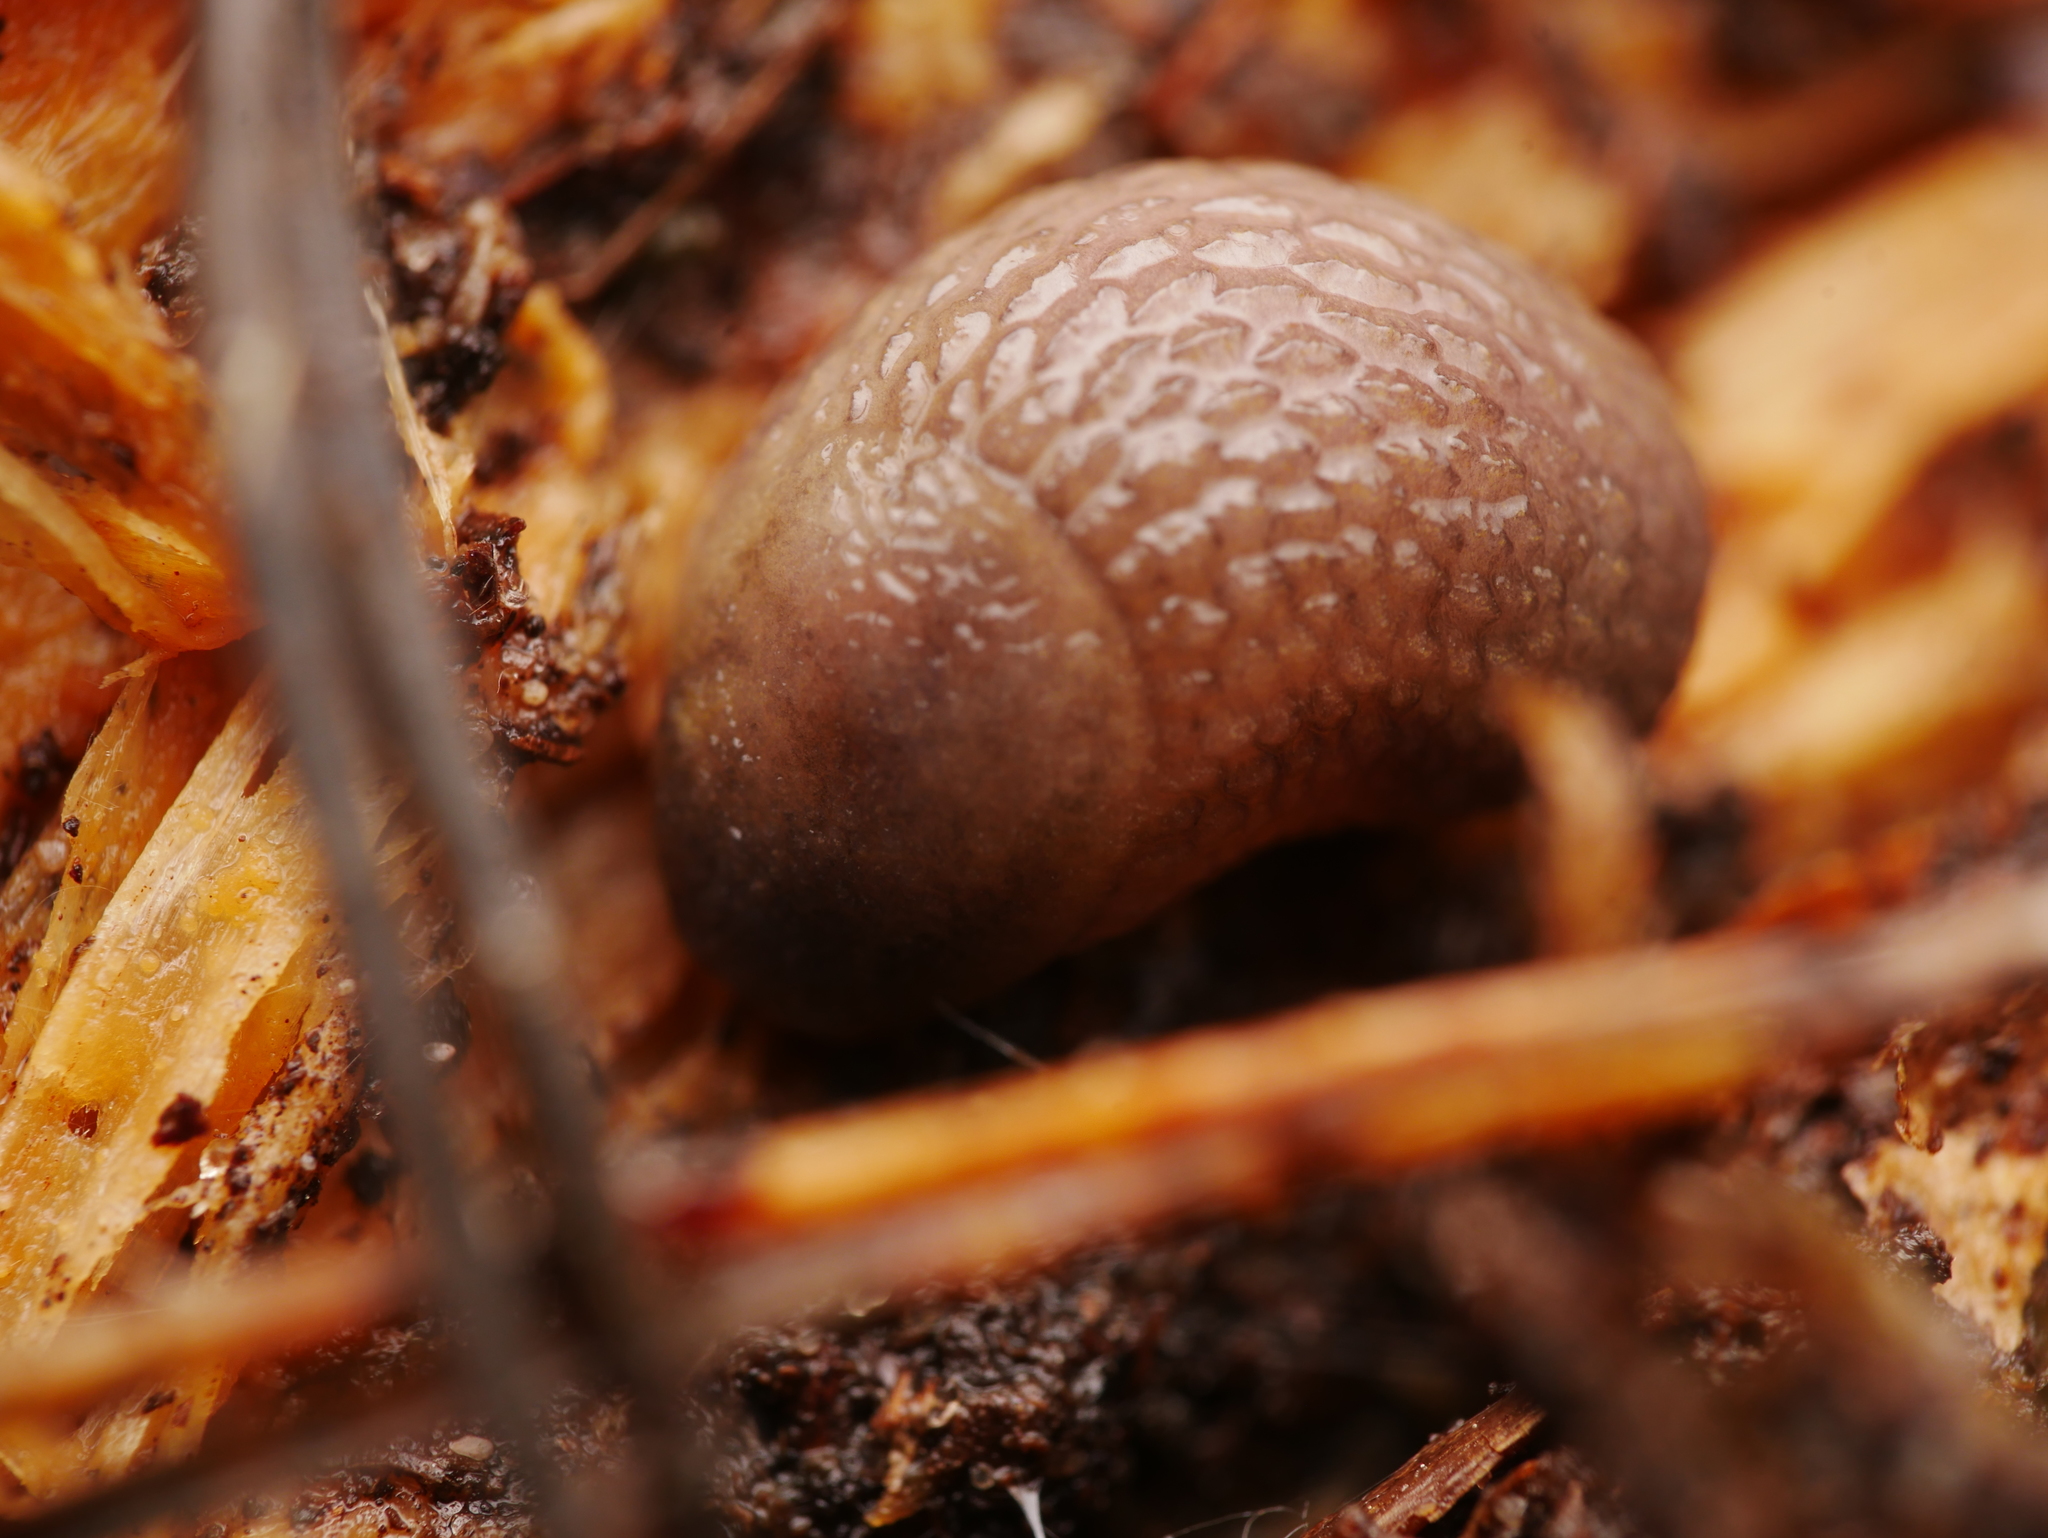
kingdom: Animalia
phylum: Mollusca
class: Gastropoda
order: Stylommatophora
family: Arionidae
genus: Arion
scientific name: Arion intermedius
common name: Hedgehog slug
